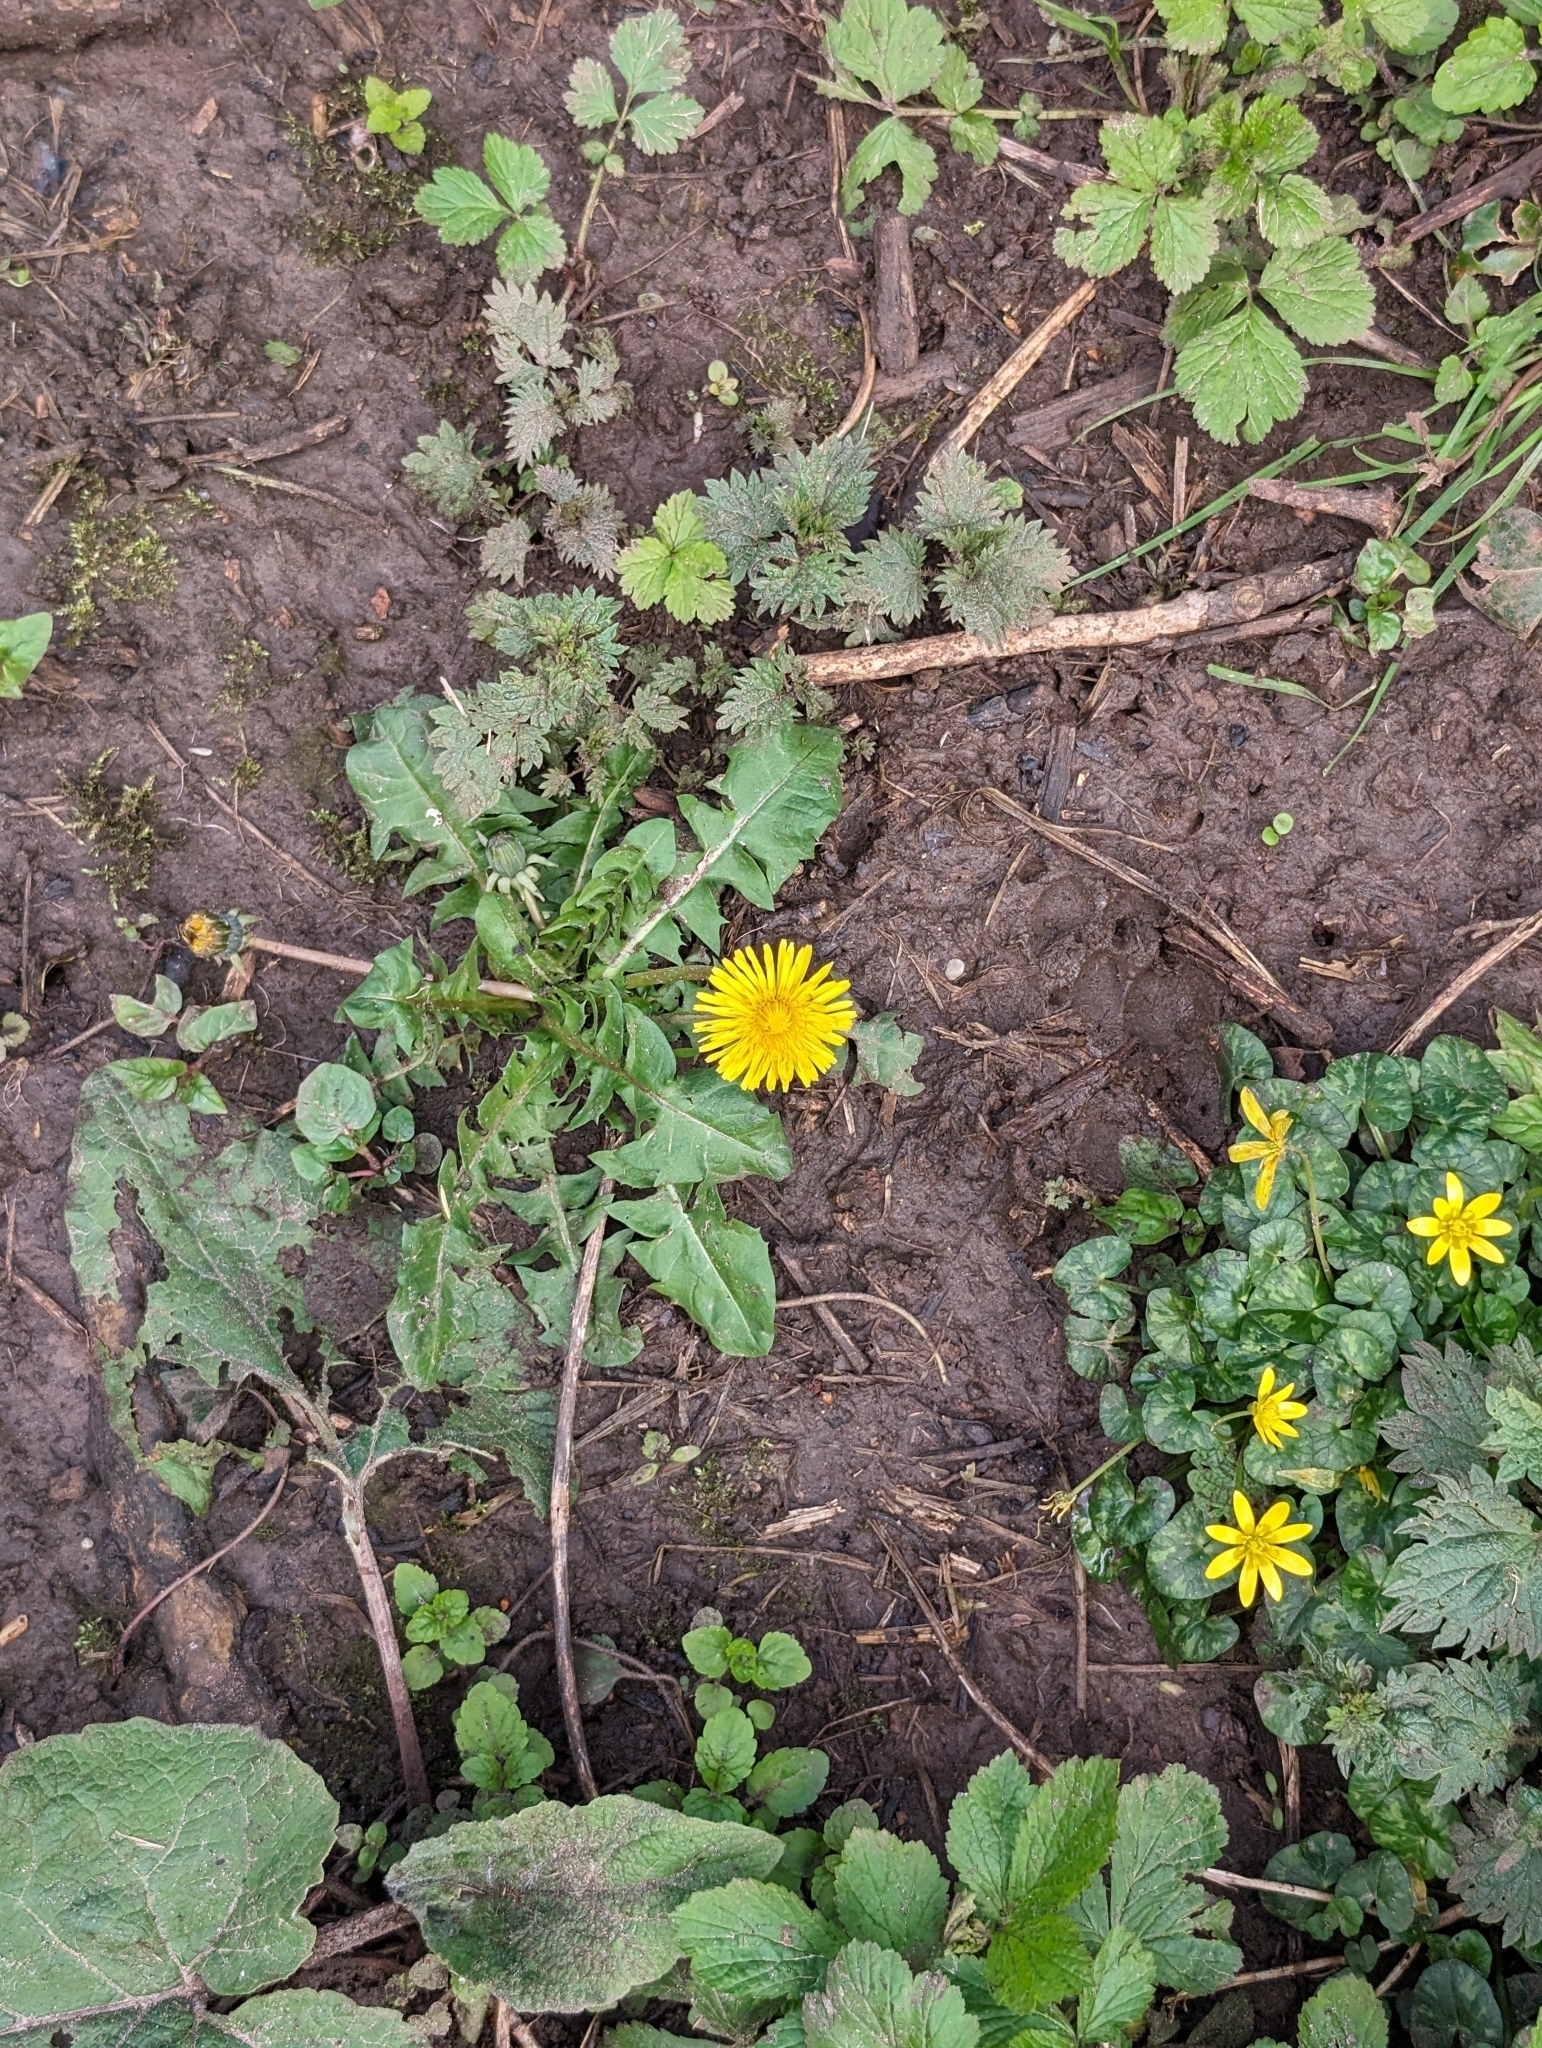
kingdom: Plantae
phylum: Tracheophyta
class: Magnoliopsida
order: Asterales
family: Asteraceae
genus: Taraxacum
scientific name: Taraxacum officinale
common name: Common dandelion
